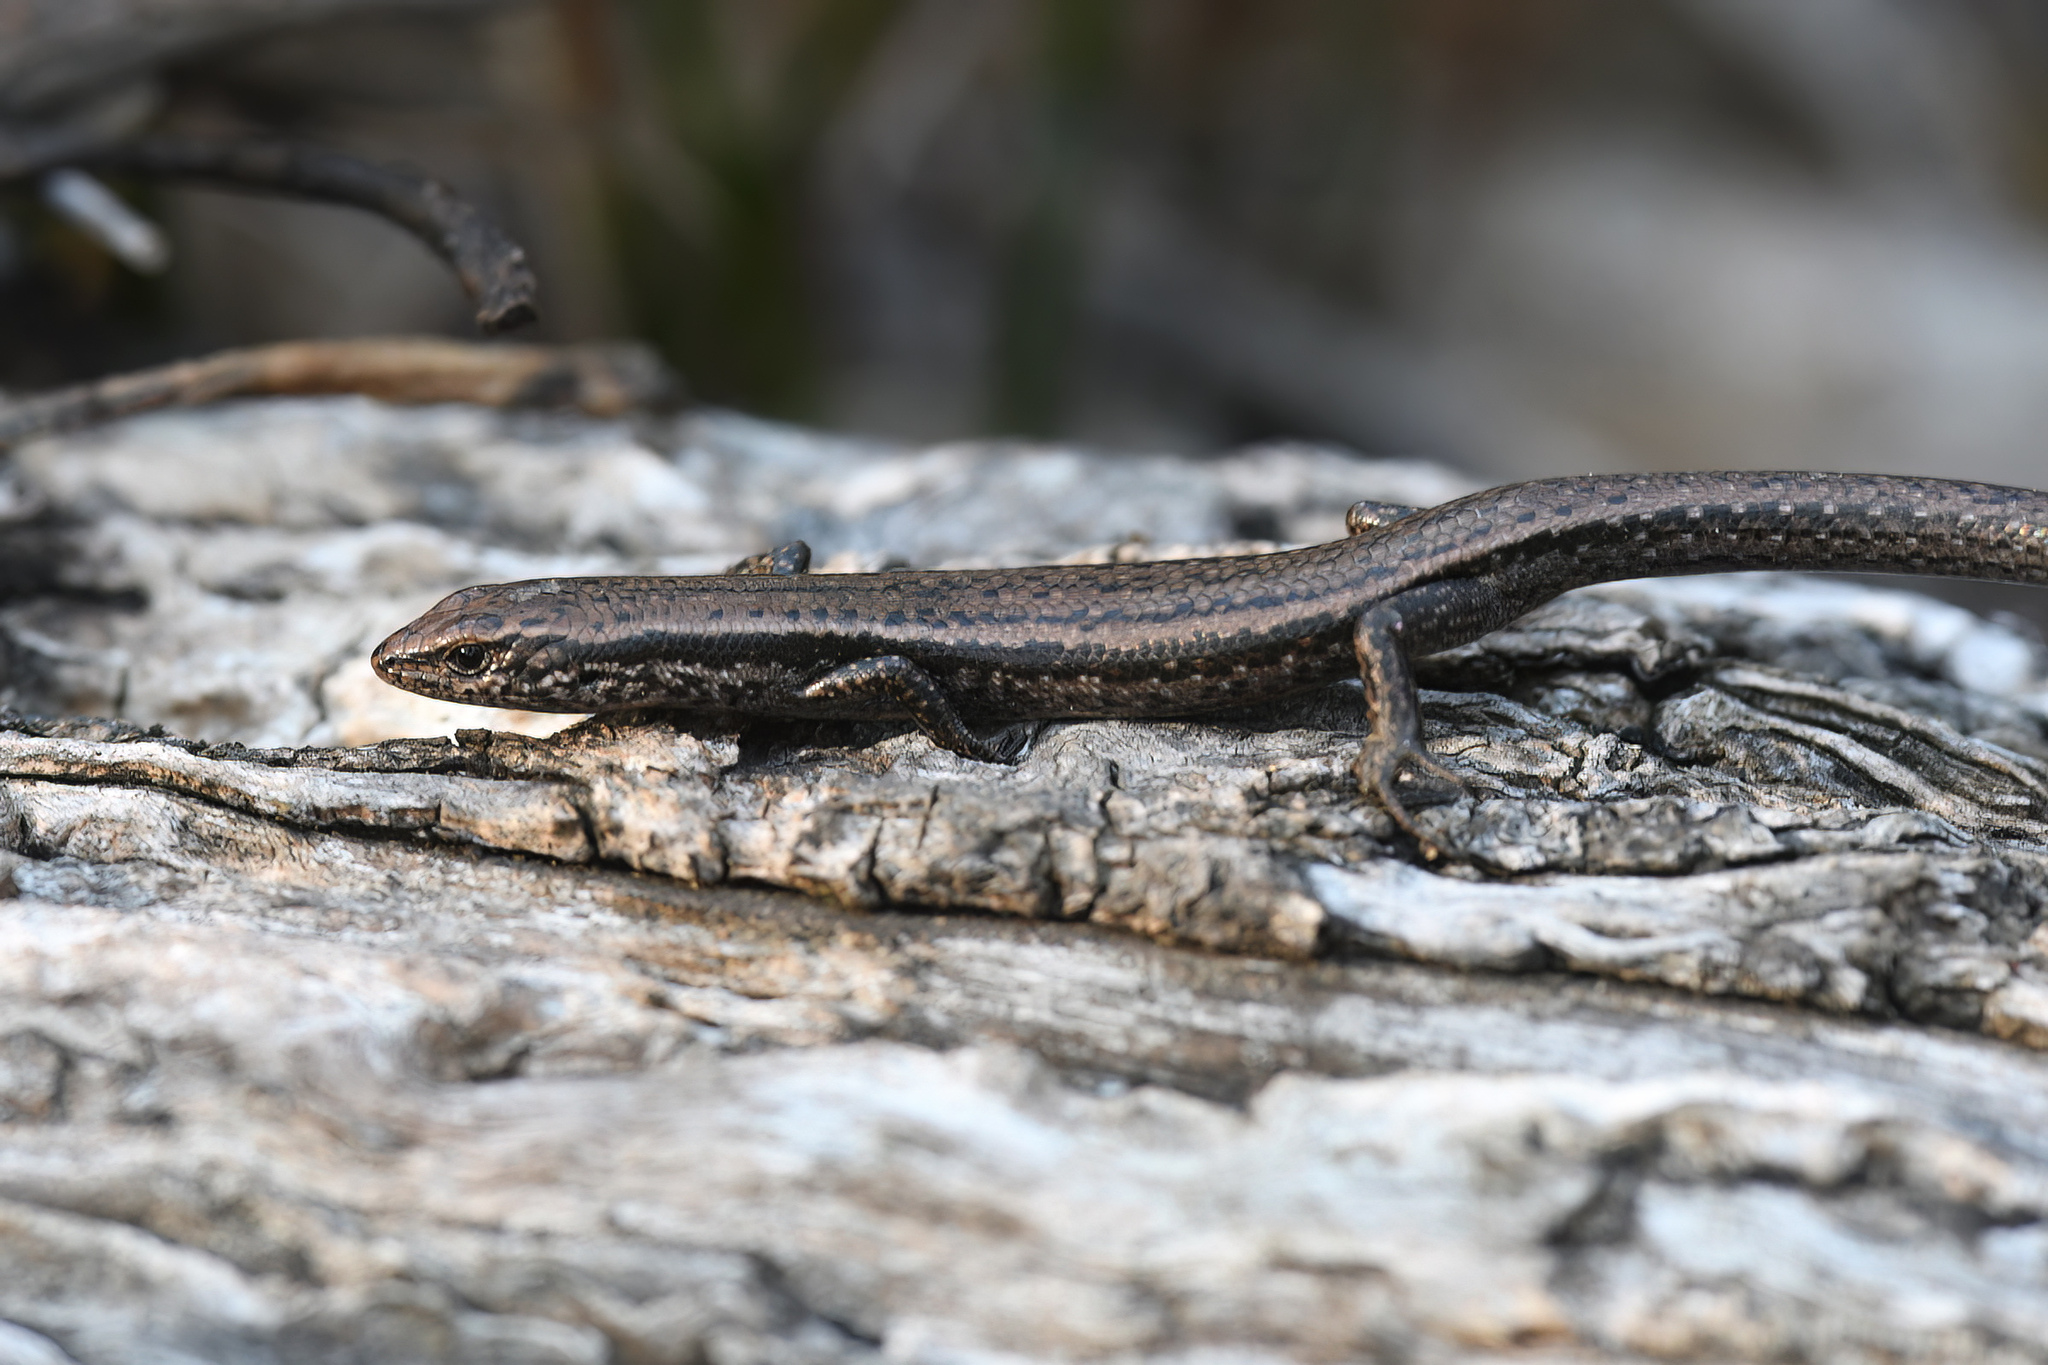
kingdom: Animalia
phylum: Chordata
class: Squamata
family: Scincidae
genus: Carinascincus
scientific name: Carinascincus metallicus
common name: Metallic cool-skink
